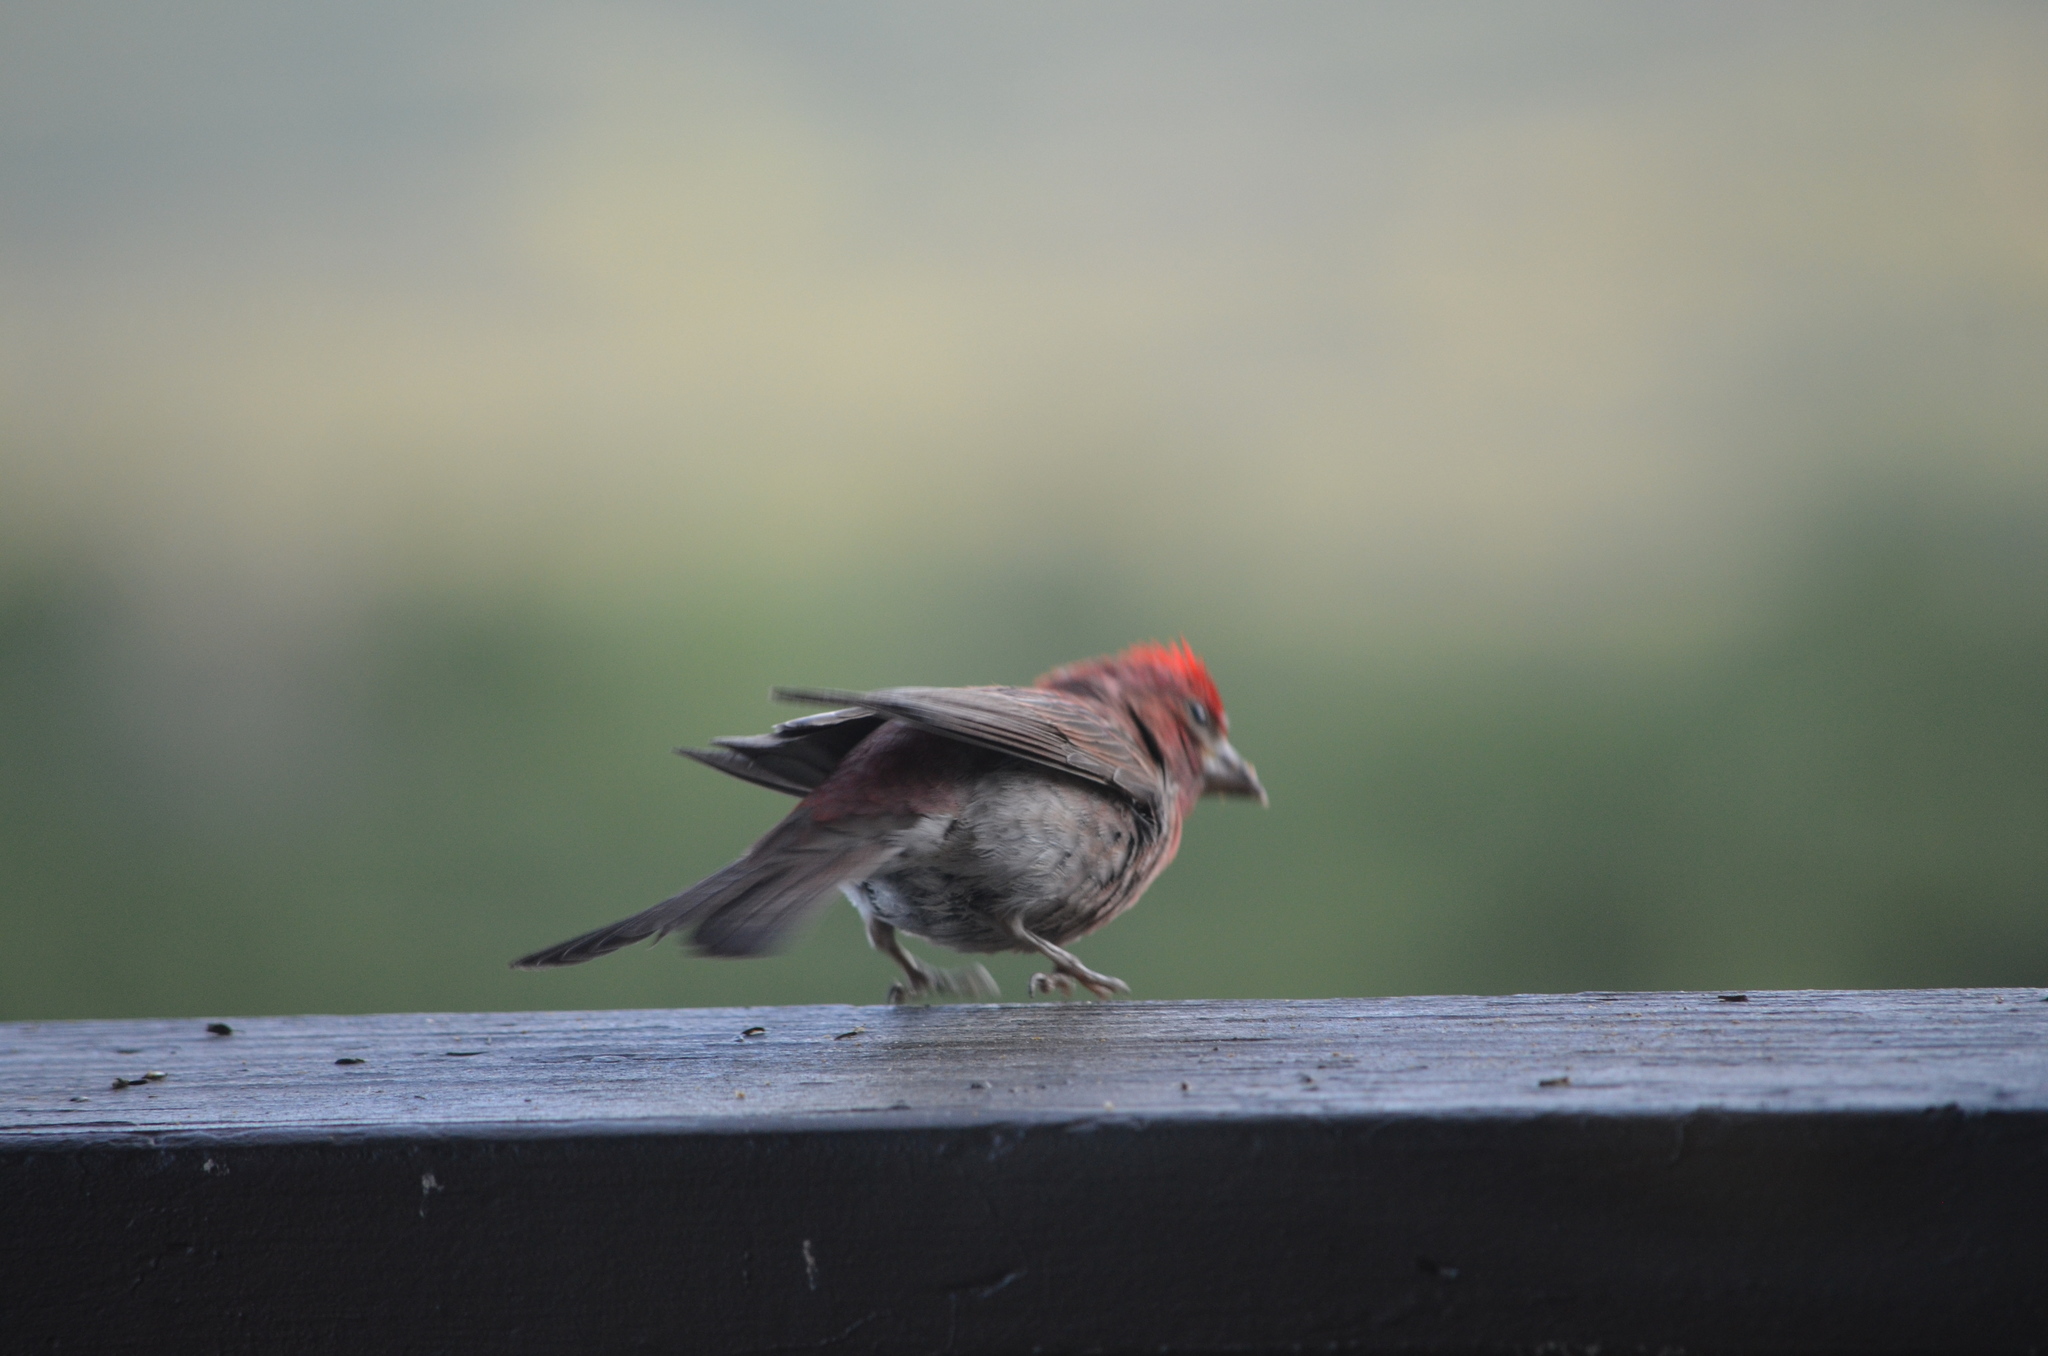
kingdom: Animalia
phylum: Chordata
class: Aves
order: Passeriformes
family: Fringillidae
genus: Haemorhous
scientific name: Haemorhous cassinii
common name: Cassin's finch
